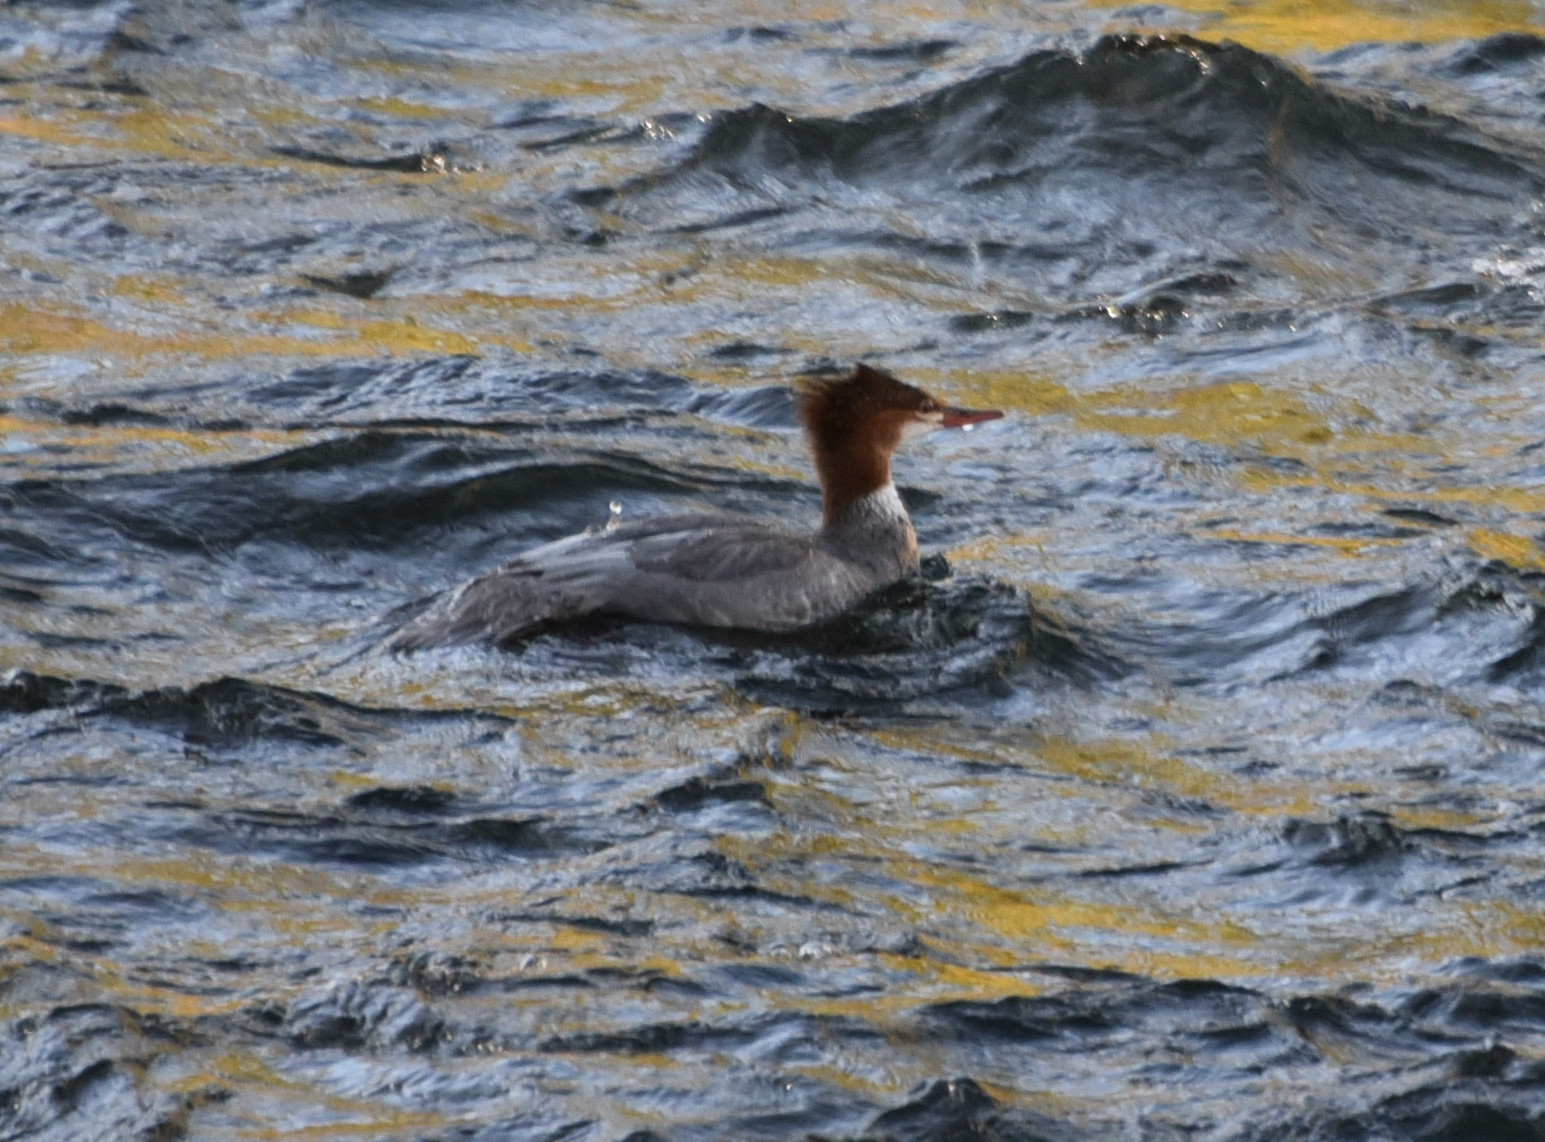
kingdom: Animalia
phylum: Chordata
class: Aves
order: Anseriformes
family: Anatidae
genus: Mergus
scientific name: Mergus merganser
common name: Common merganser
